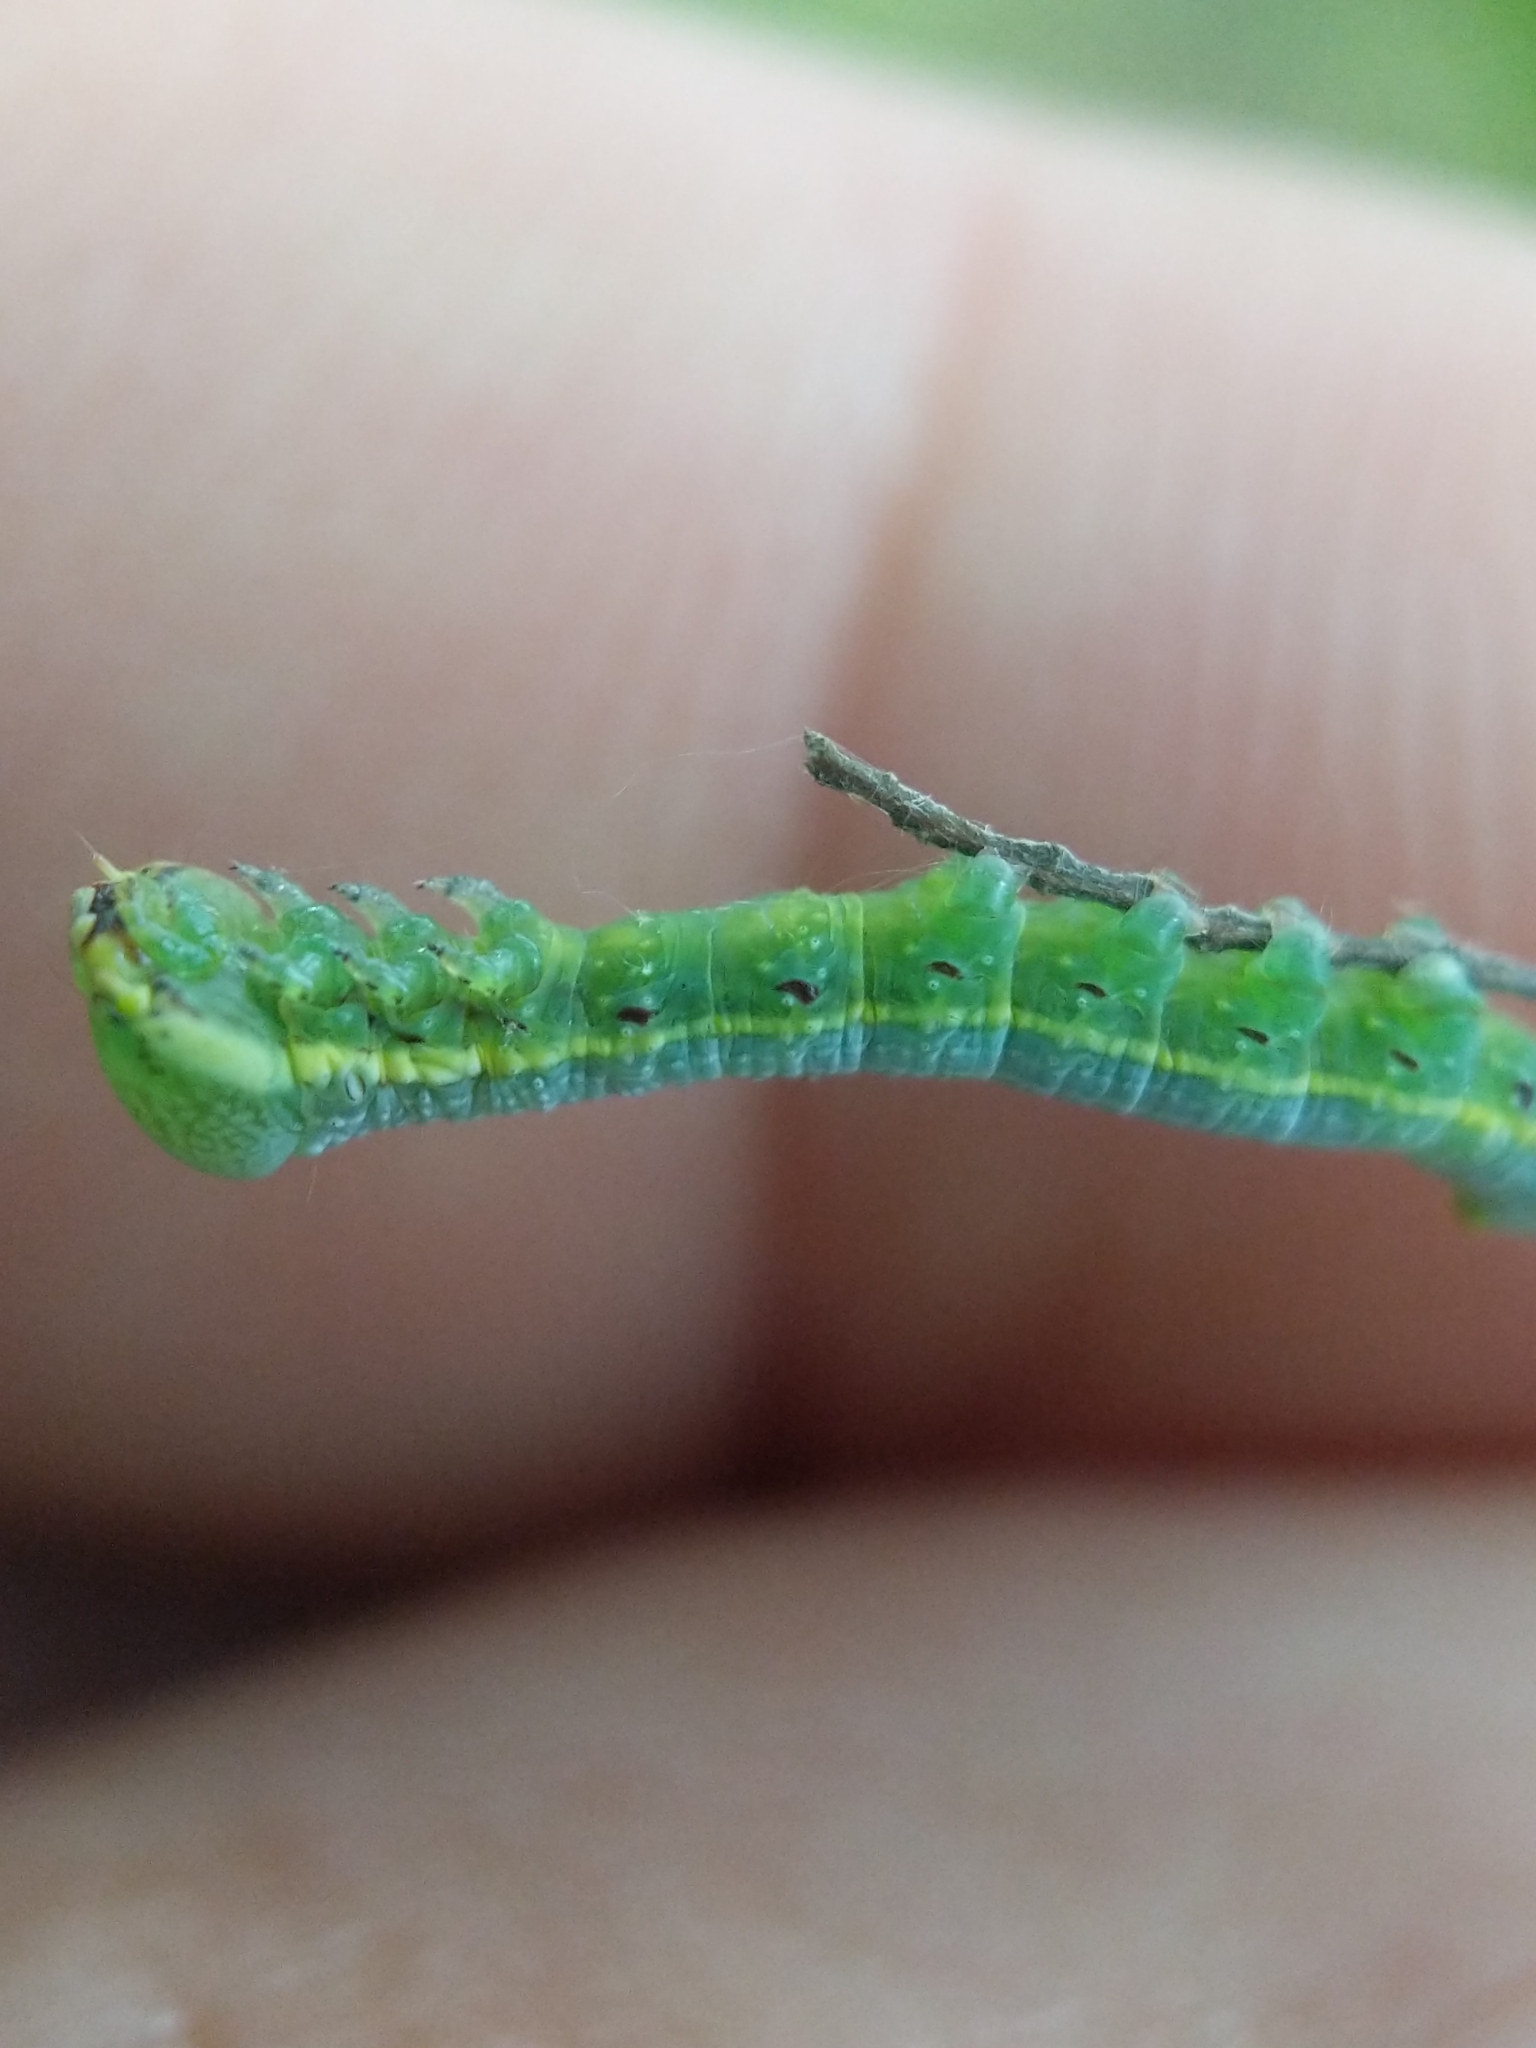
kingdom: Animalia
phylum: Arthropoda
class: Insecta
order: Lepidoptera
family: Notodontidae
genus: Paraeschra
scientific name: Paraeschra georgica
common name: Georgian prominent
